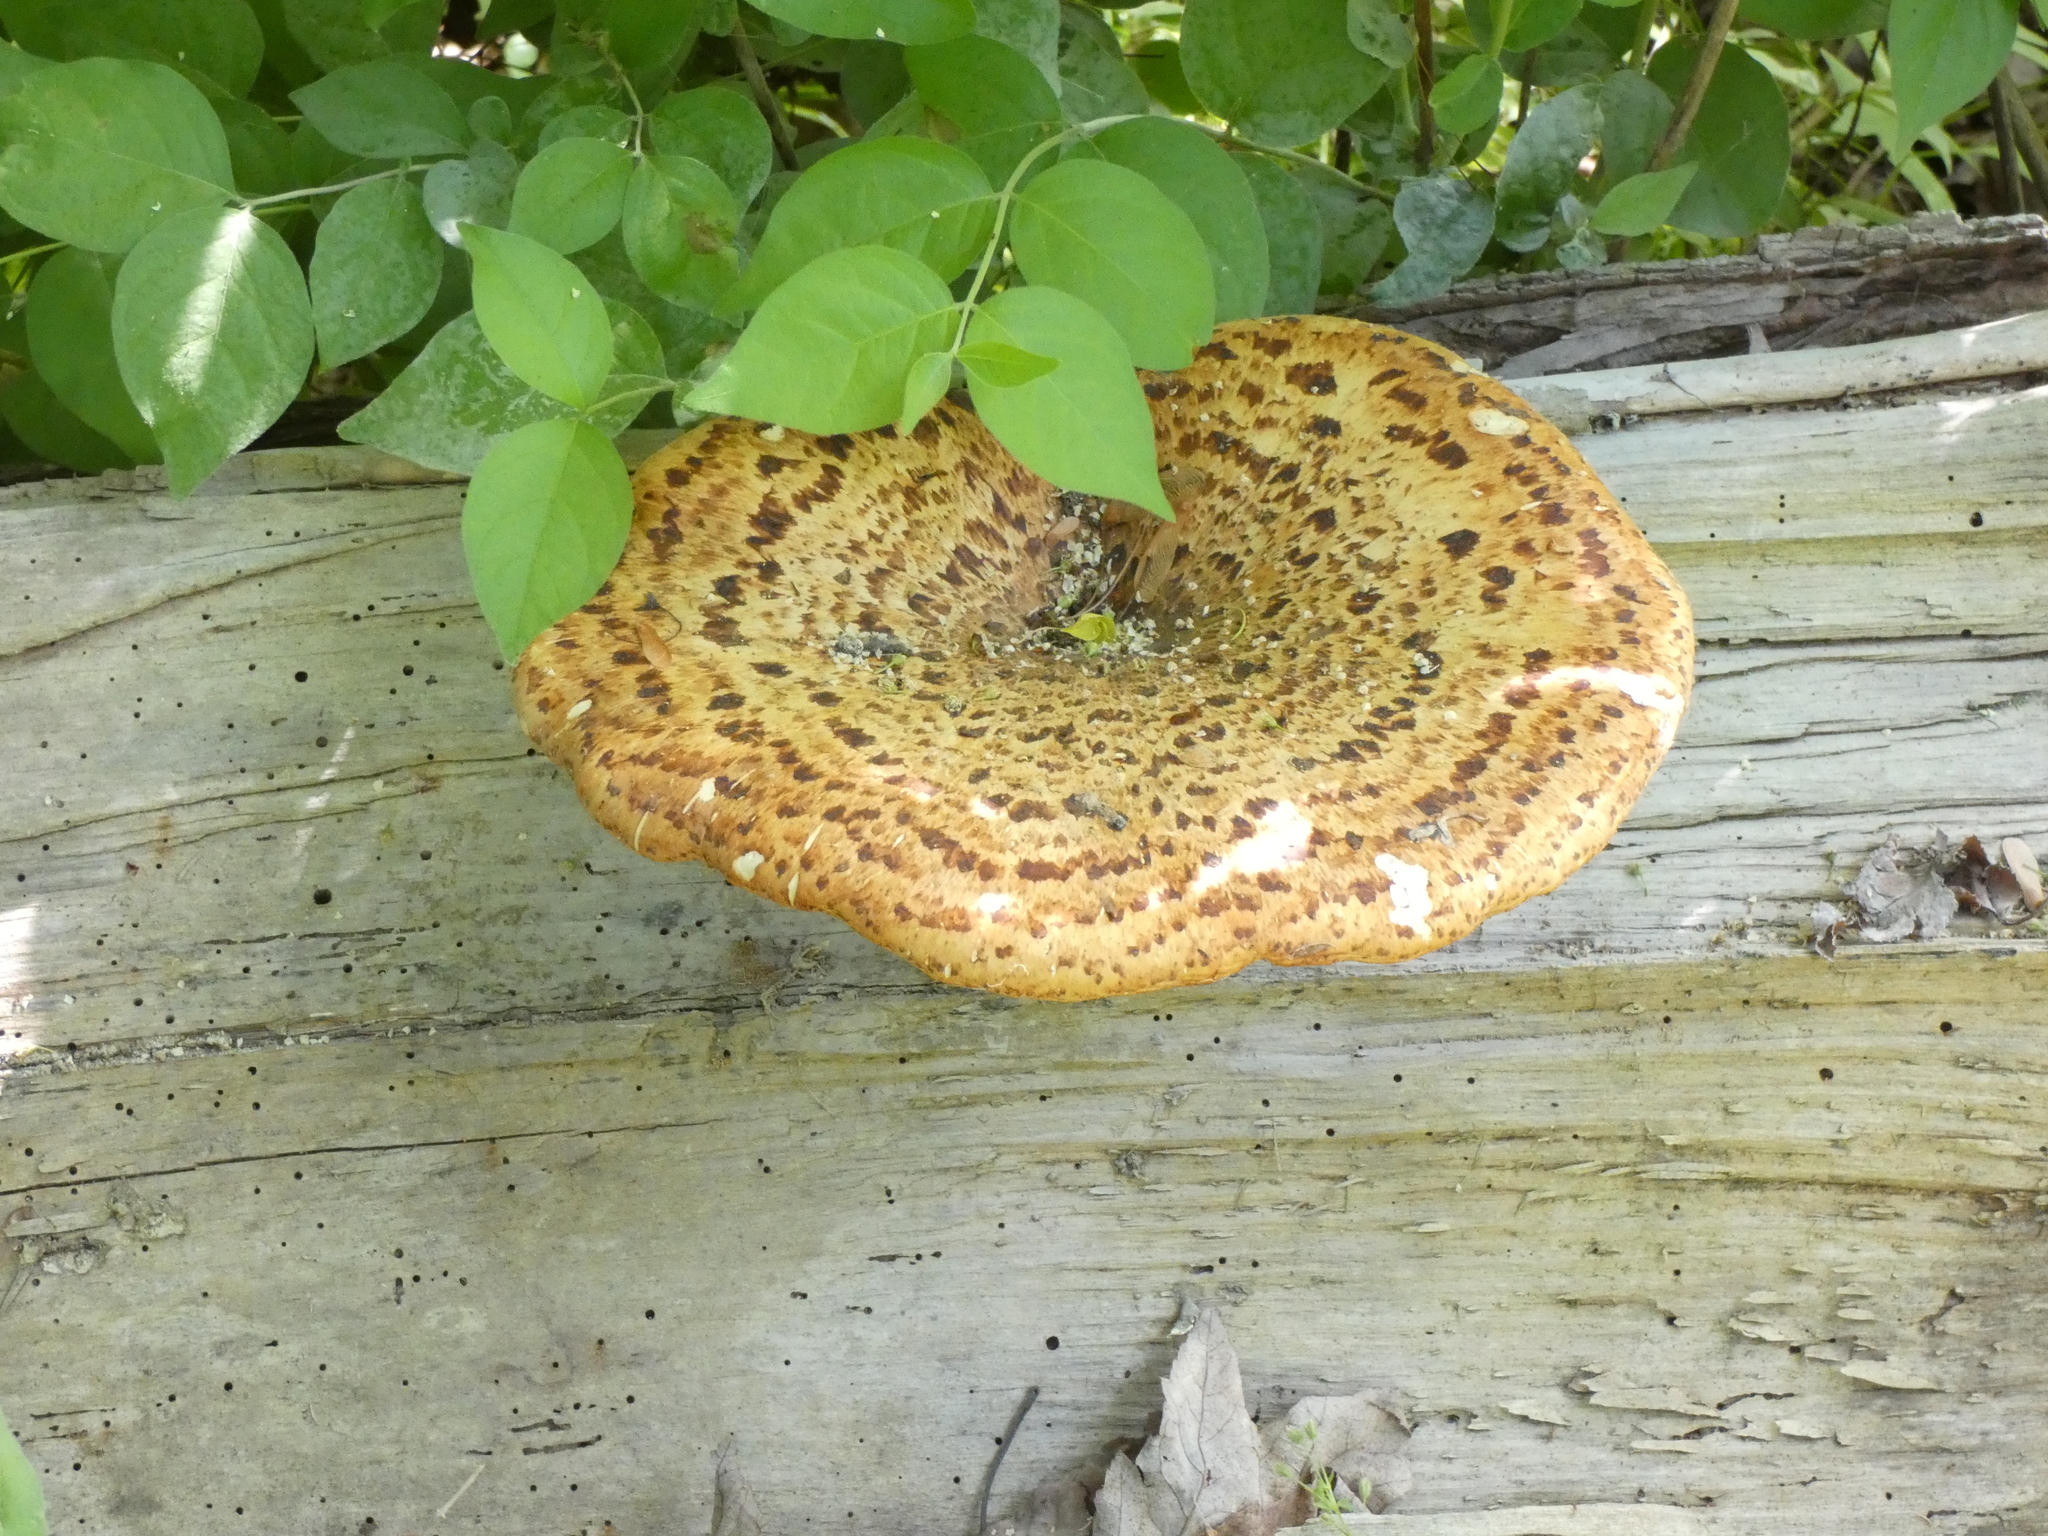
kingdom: Fungi
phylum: Basidiomycota
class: Agaricomycetes
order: Polyporales
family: Polyporaceae
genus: Cerioporus
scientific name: Cerioporus squamosus
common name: Dryad's saddle
